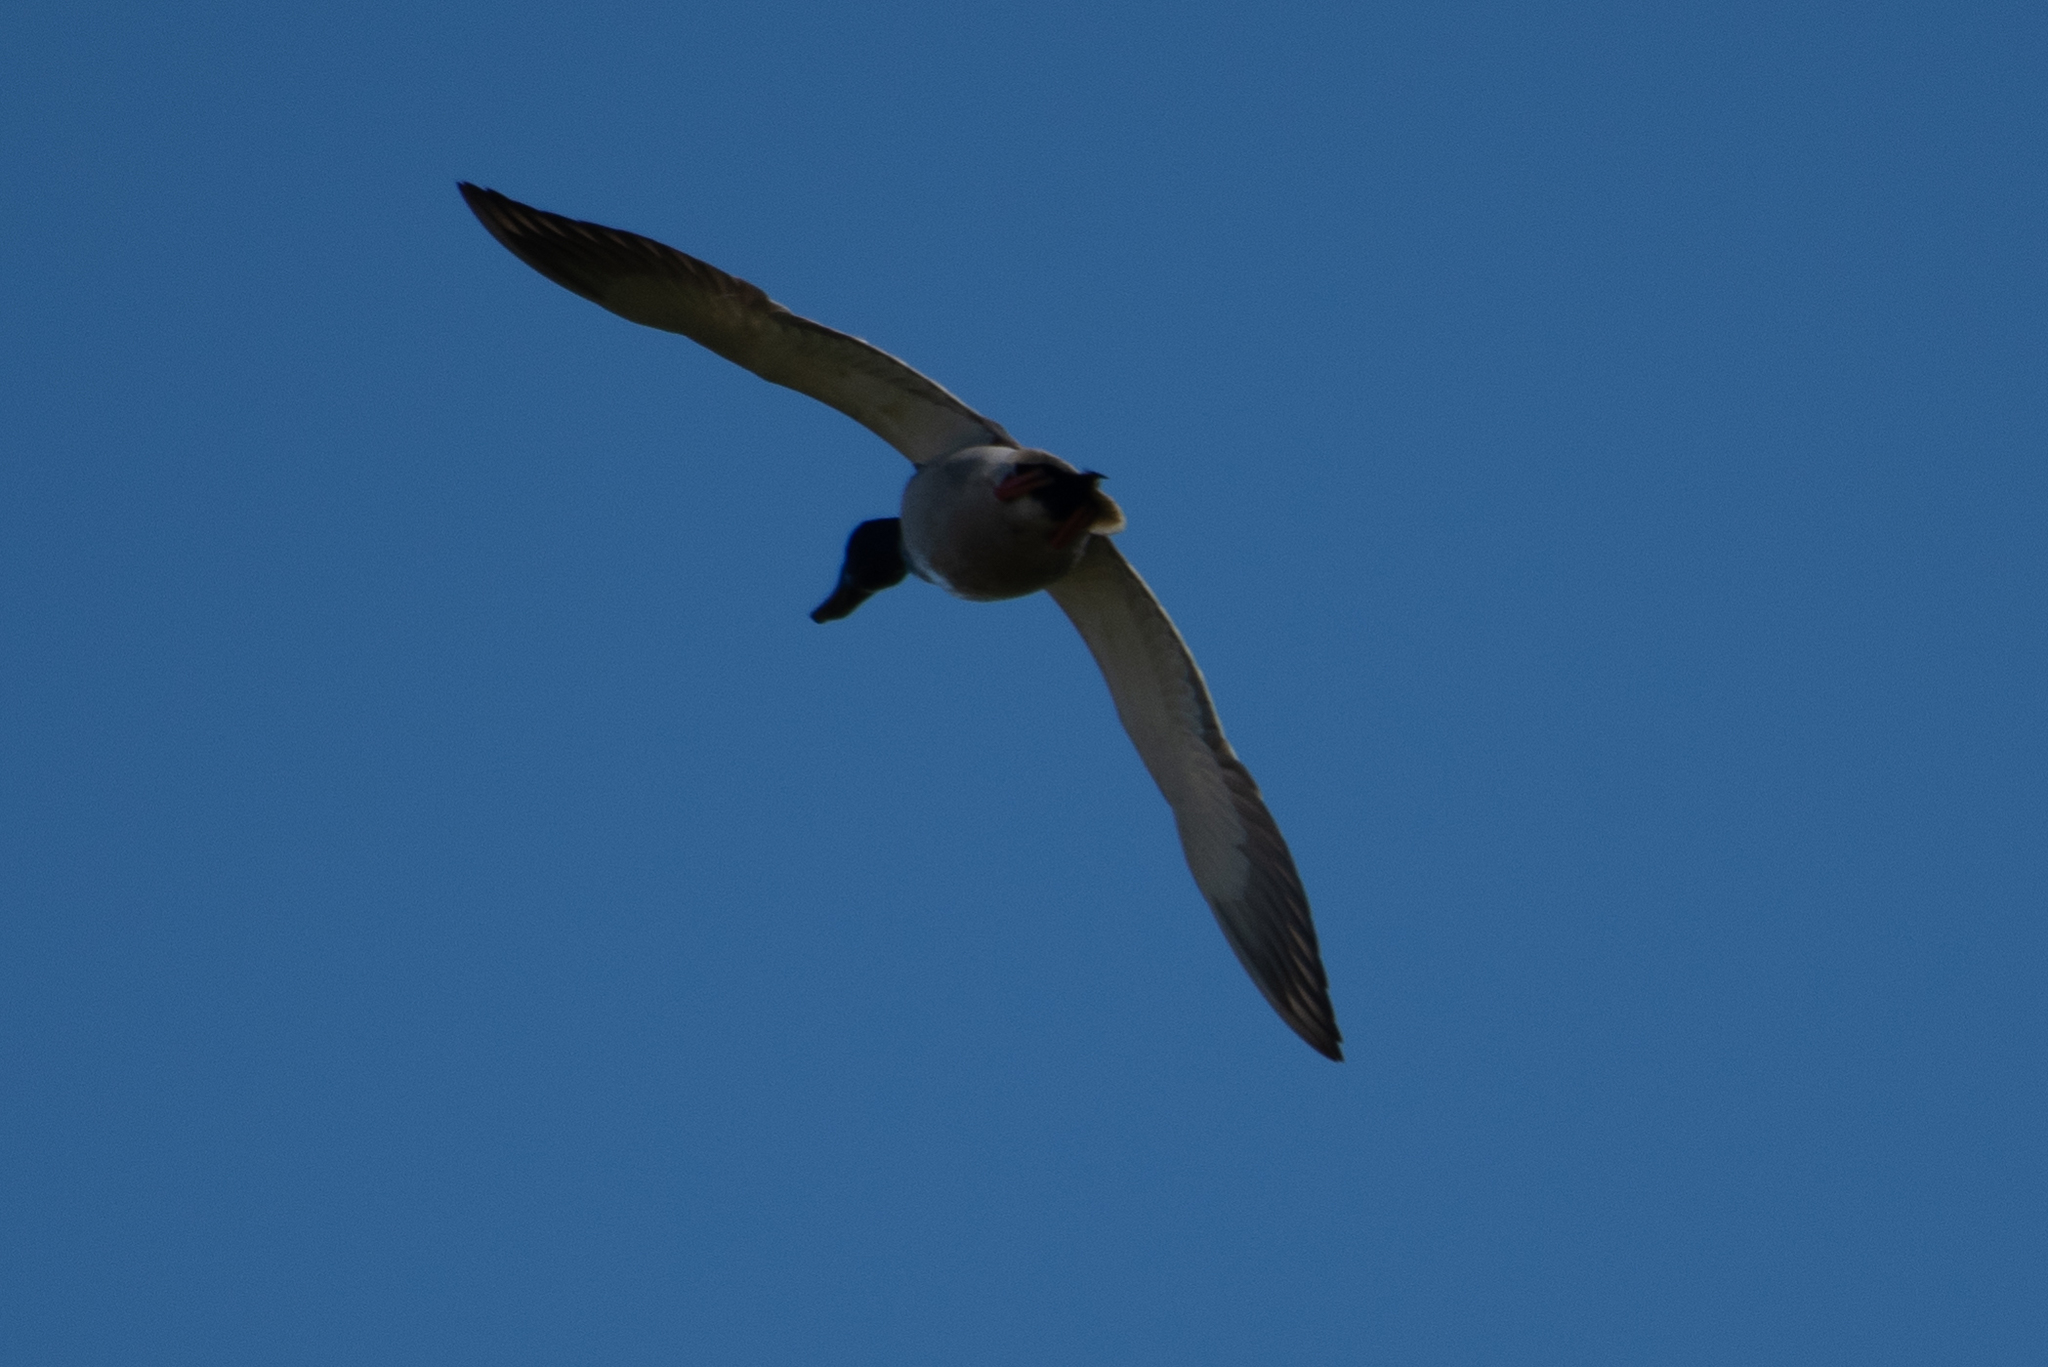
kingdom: Animalia
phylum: Chordata
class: Aves
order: Anseriformes
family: Anatidae
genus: Anas
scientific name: Anas platyrhynchos
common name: Mallard
